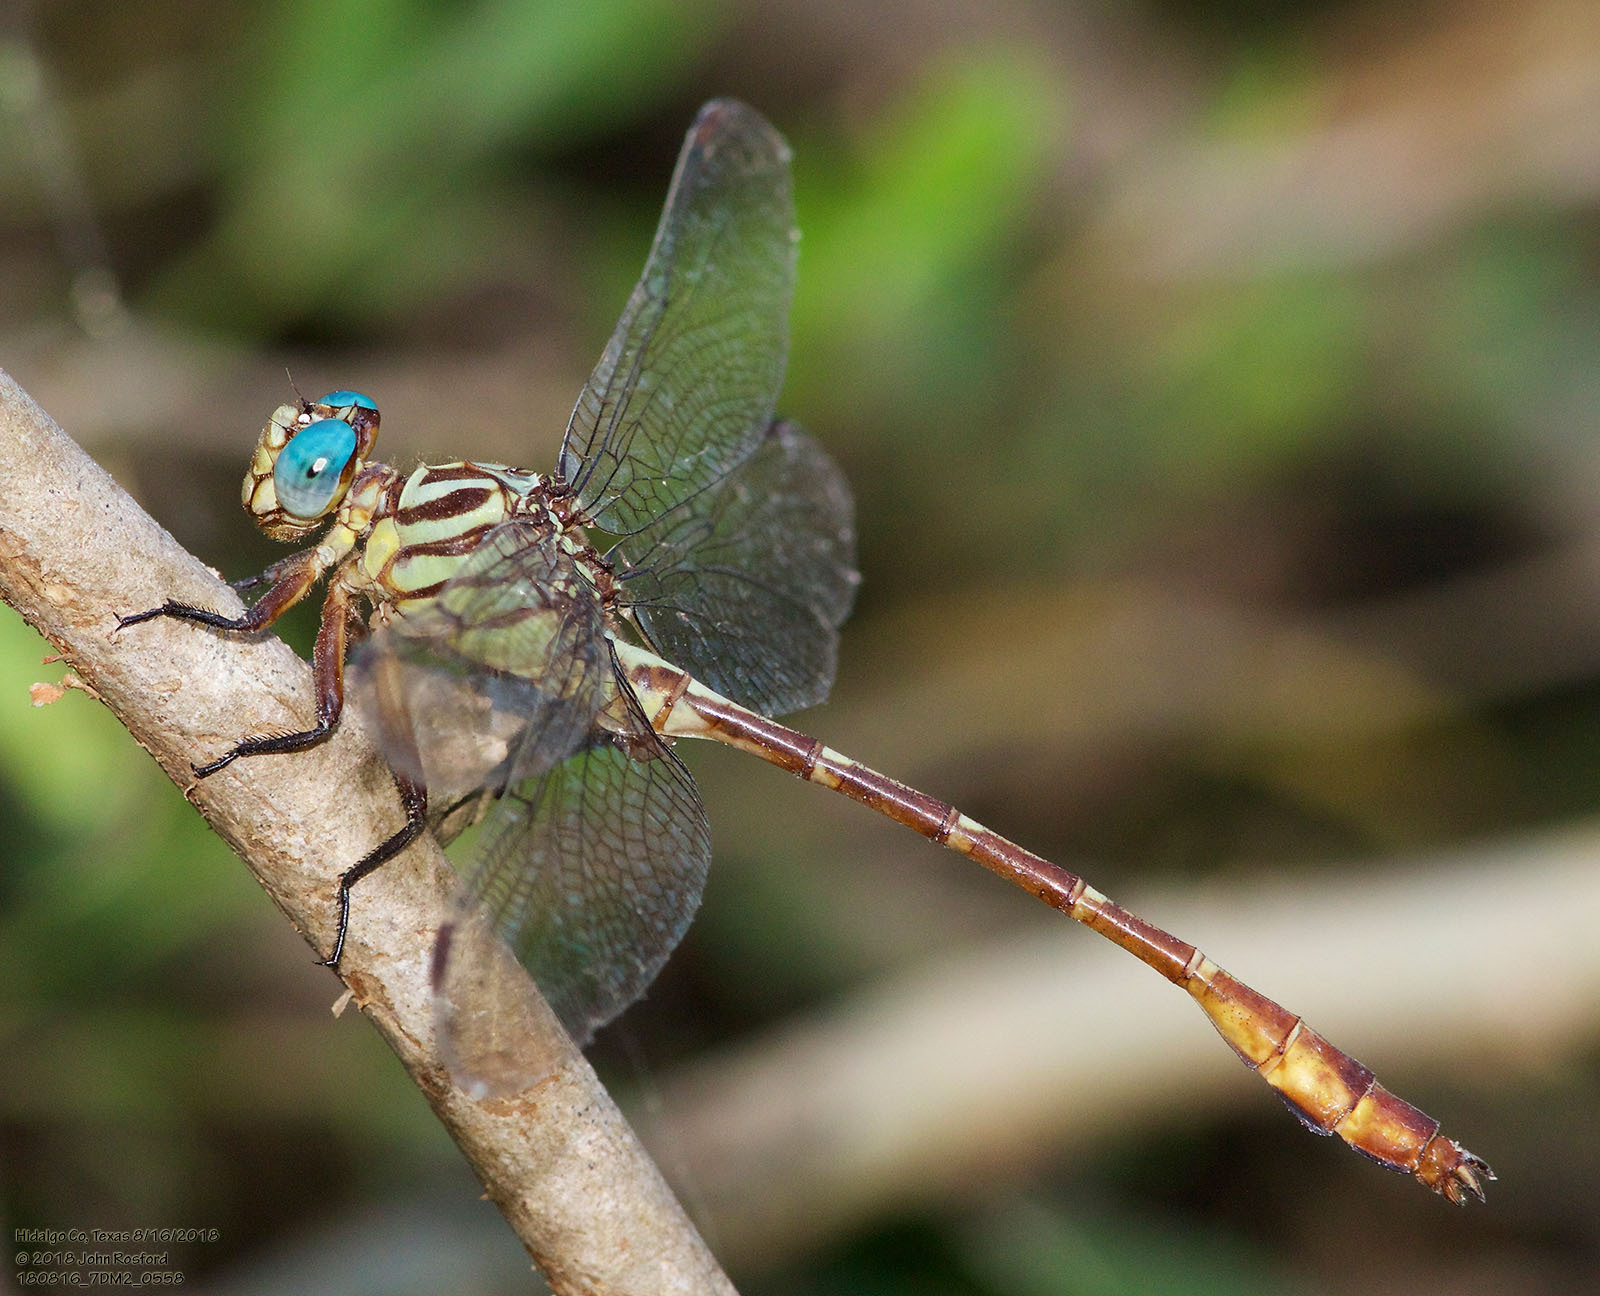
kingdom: Animalia
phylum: Arthropoda
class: Insecta
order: Odonata
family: Gomphidae
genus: Stylurus
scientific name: Stylurus plagiatus
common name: Russet-tipped clubtail
